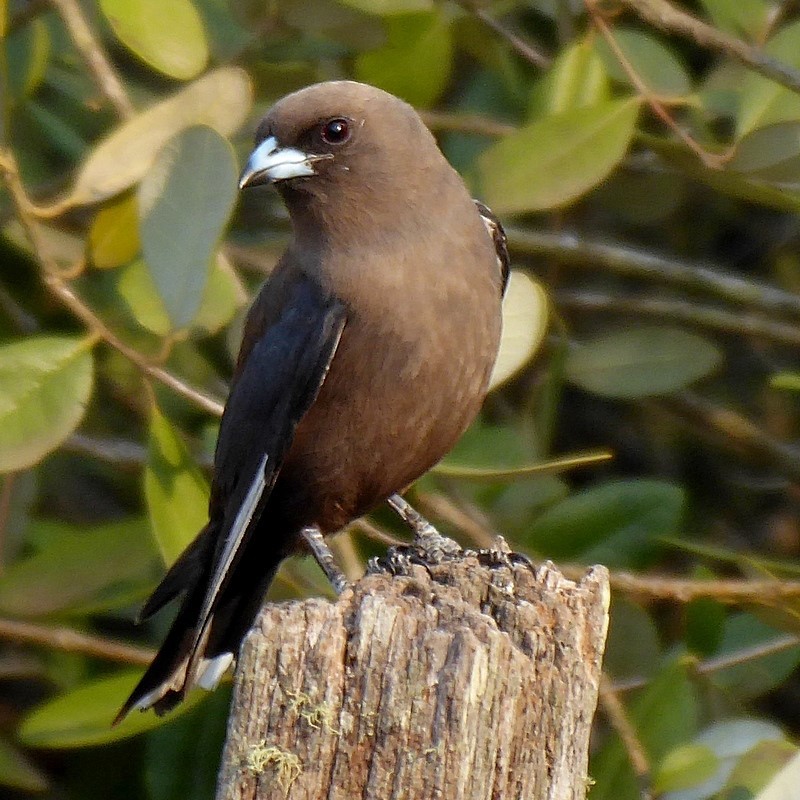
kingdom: Animalia
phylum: Chordata
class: Aves
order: Passeriformes
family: Artamidae
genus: Artamus
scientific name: Artamus cyanopterus
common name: Dusky woodswallow
